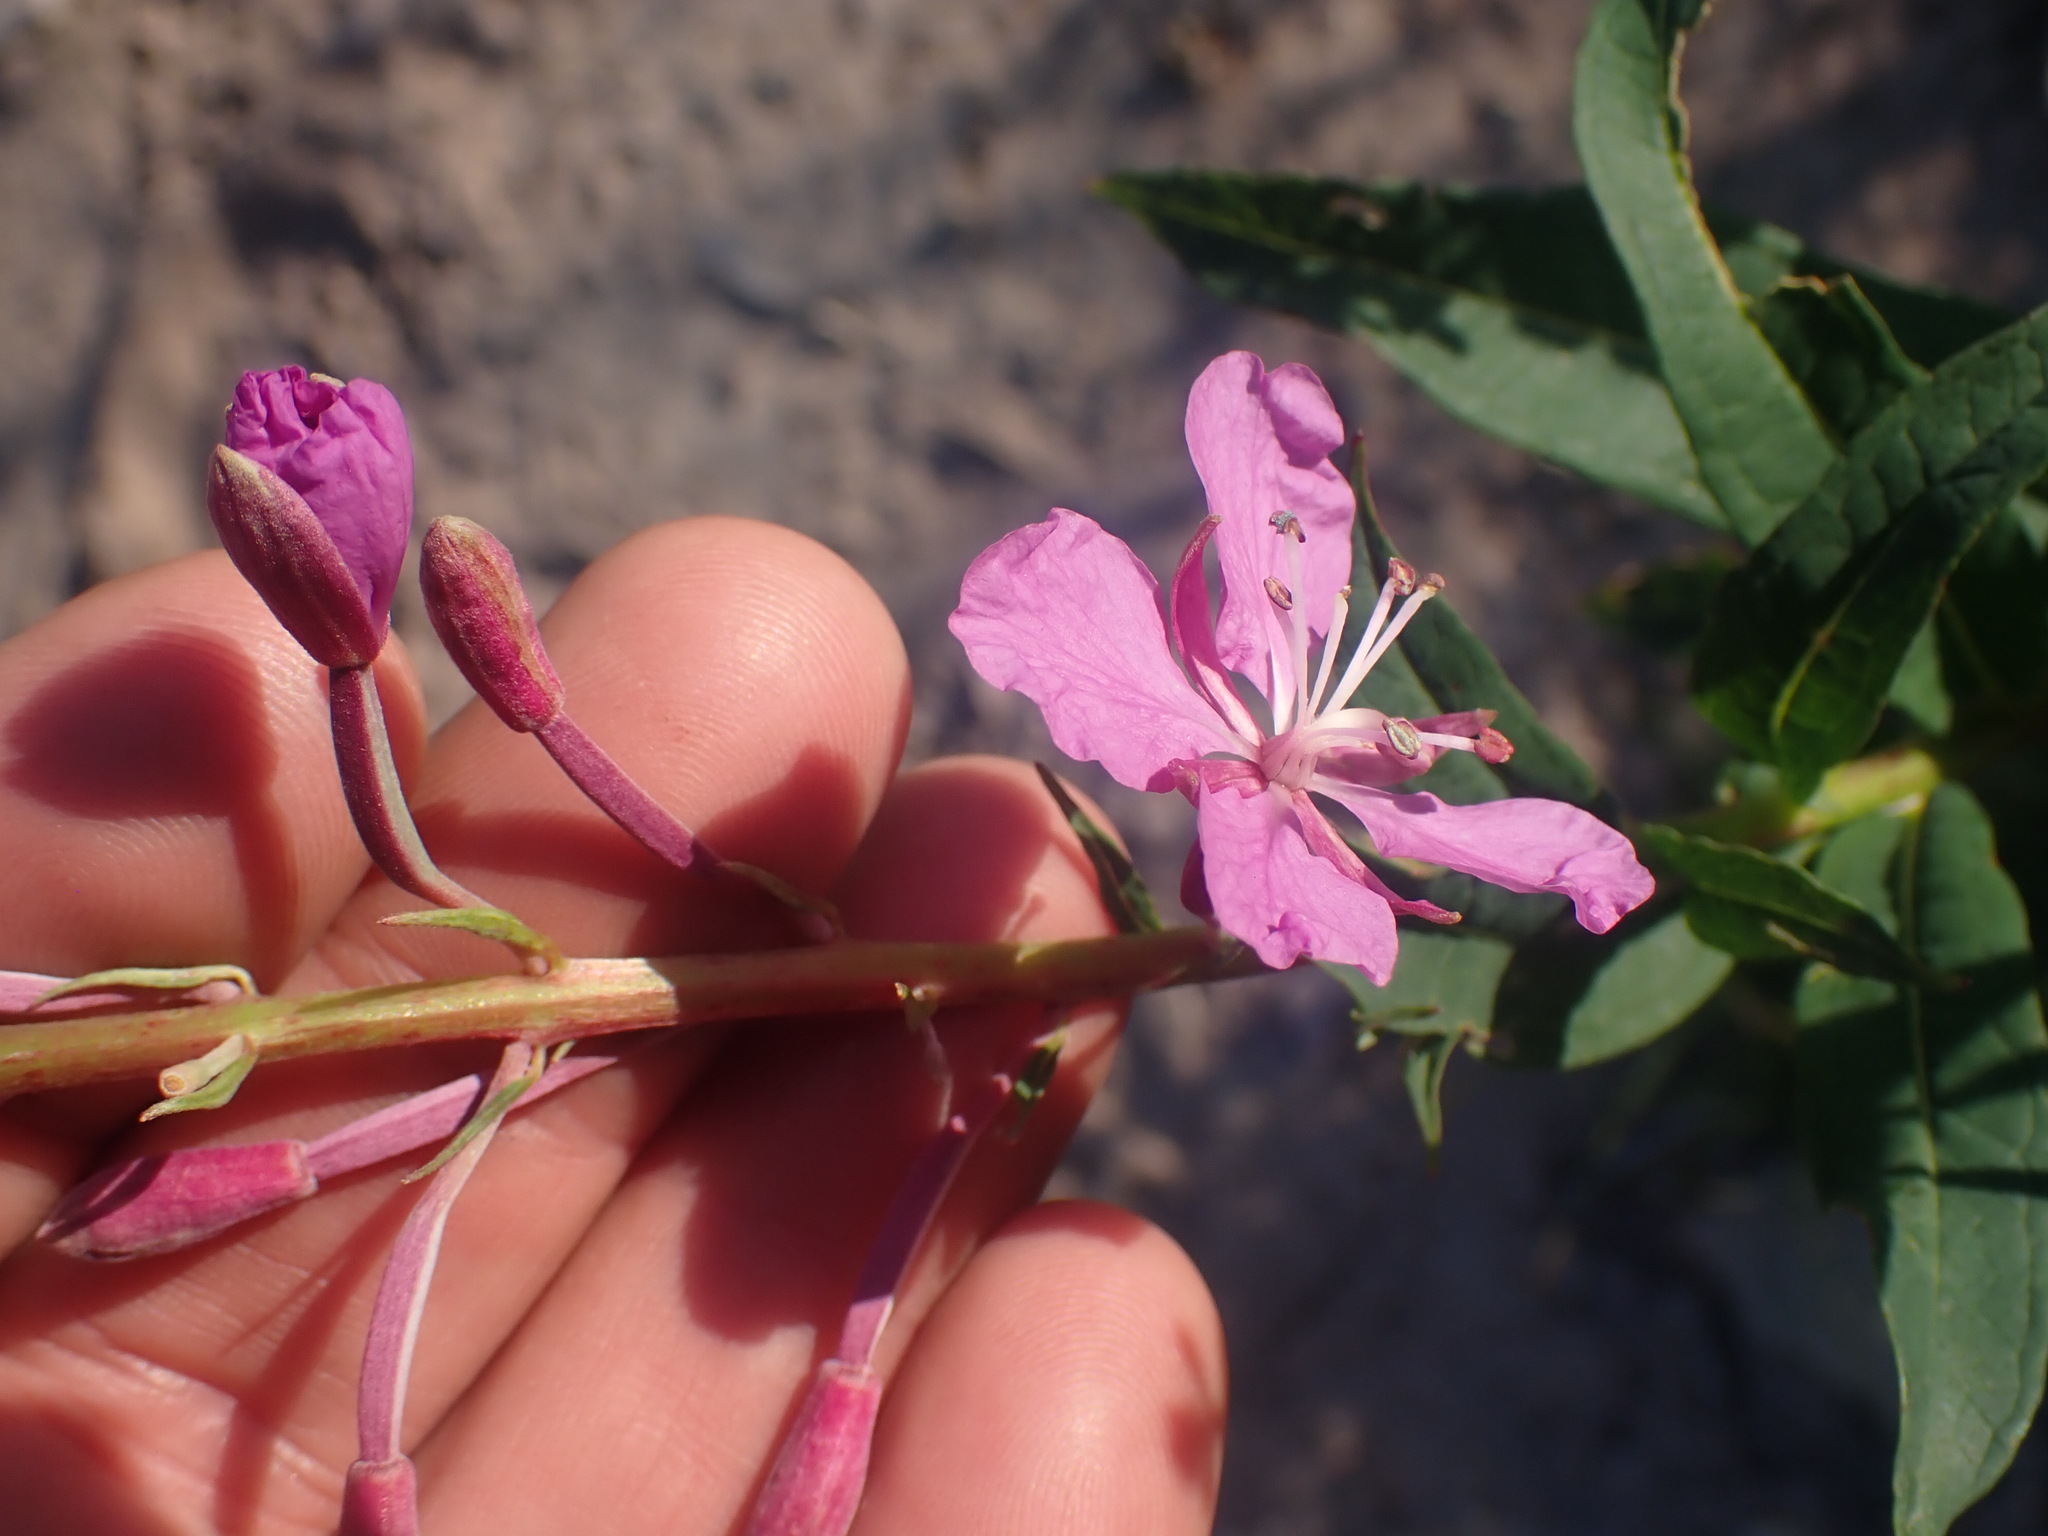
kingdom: Plantae
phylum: Tracheophyta
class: Magnoliopsida
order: Myrtales
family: Onagraceae
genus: Chamaenerion
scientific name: Chamaenerion angustifolium
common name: Fireweed
